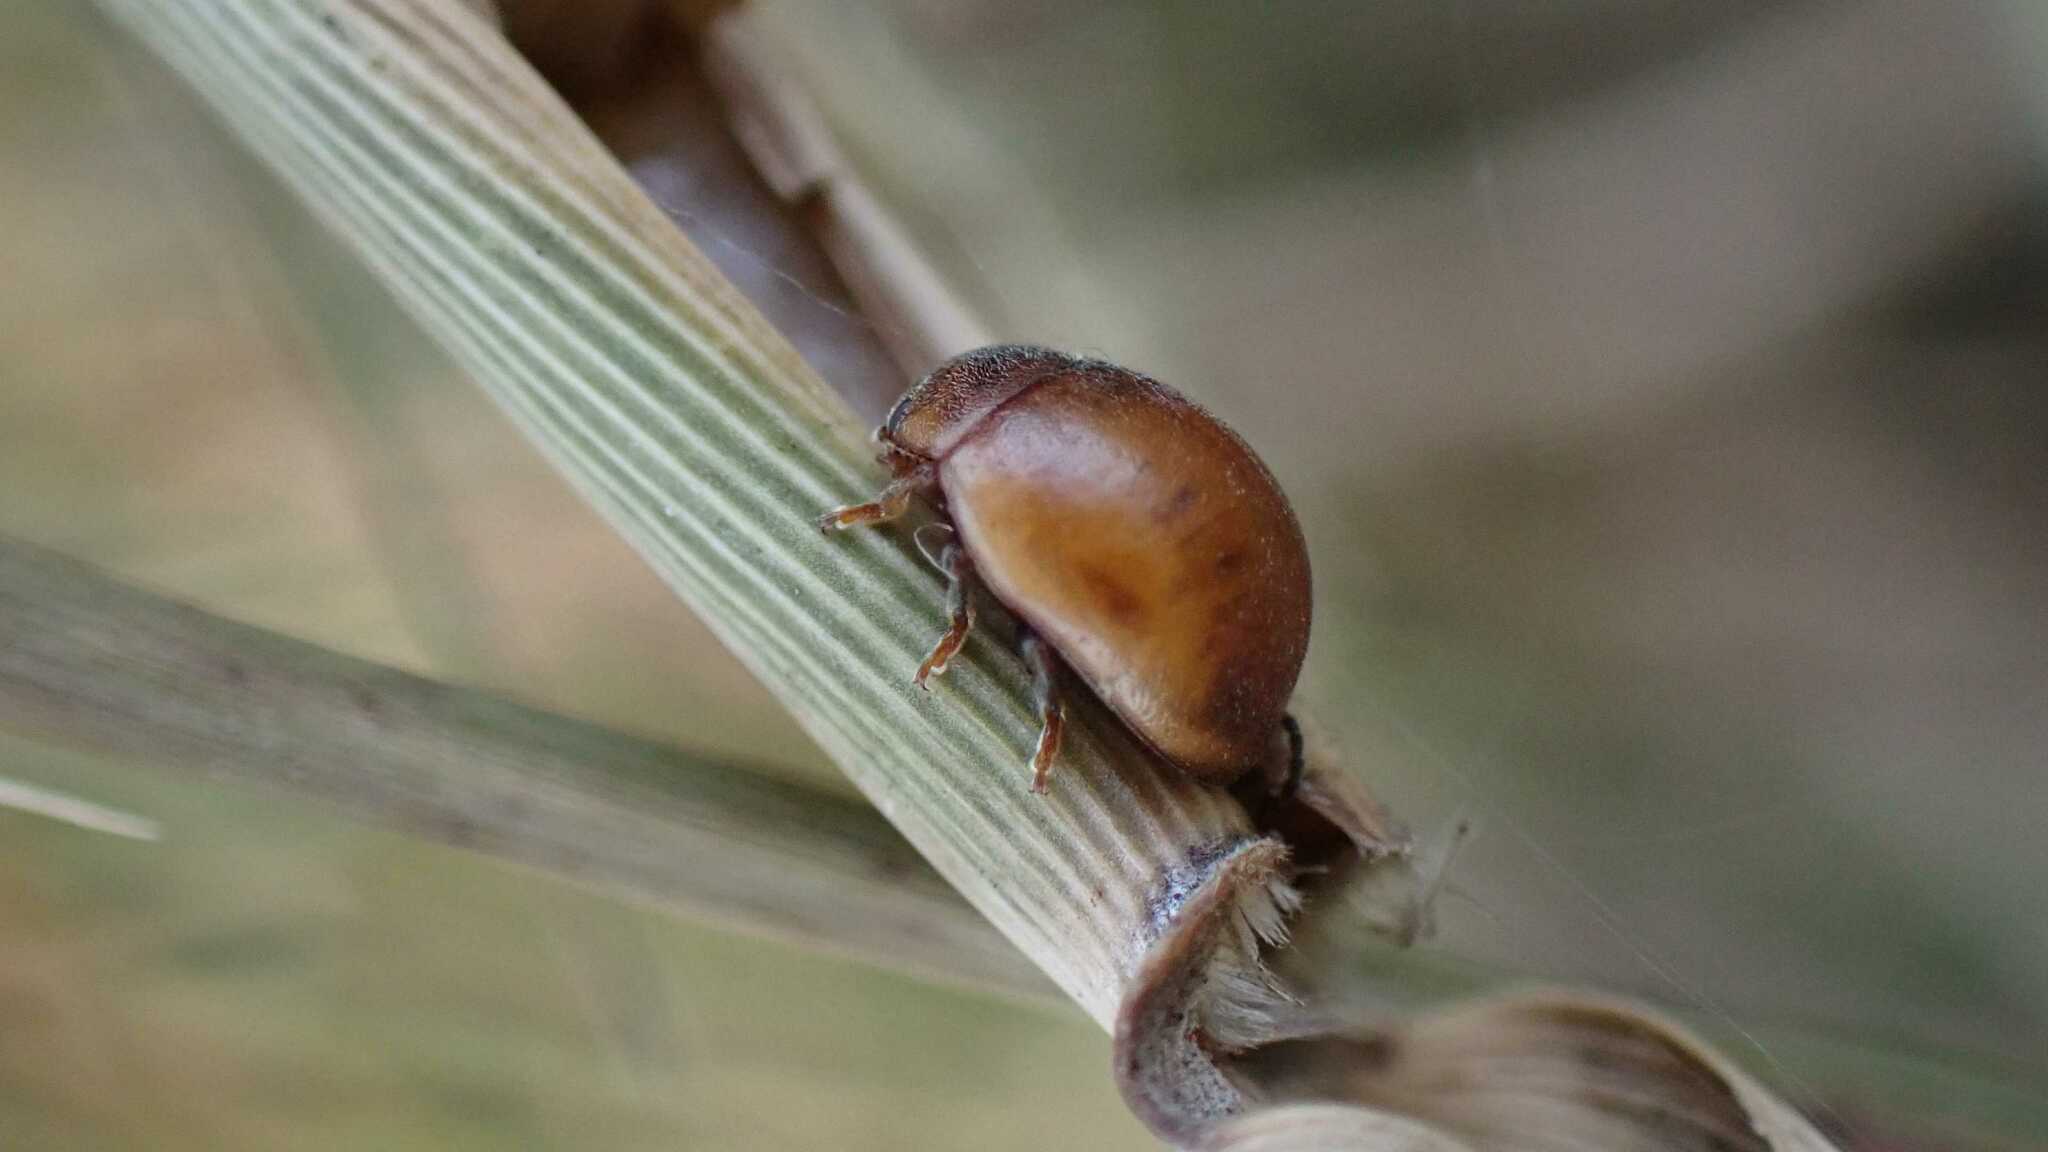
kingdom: Animalia
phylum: Arthropoda
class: Insecta
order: Coleoptera
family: Coccinellidae
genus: Cynegetis
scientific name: Cynegetis impunctata
